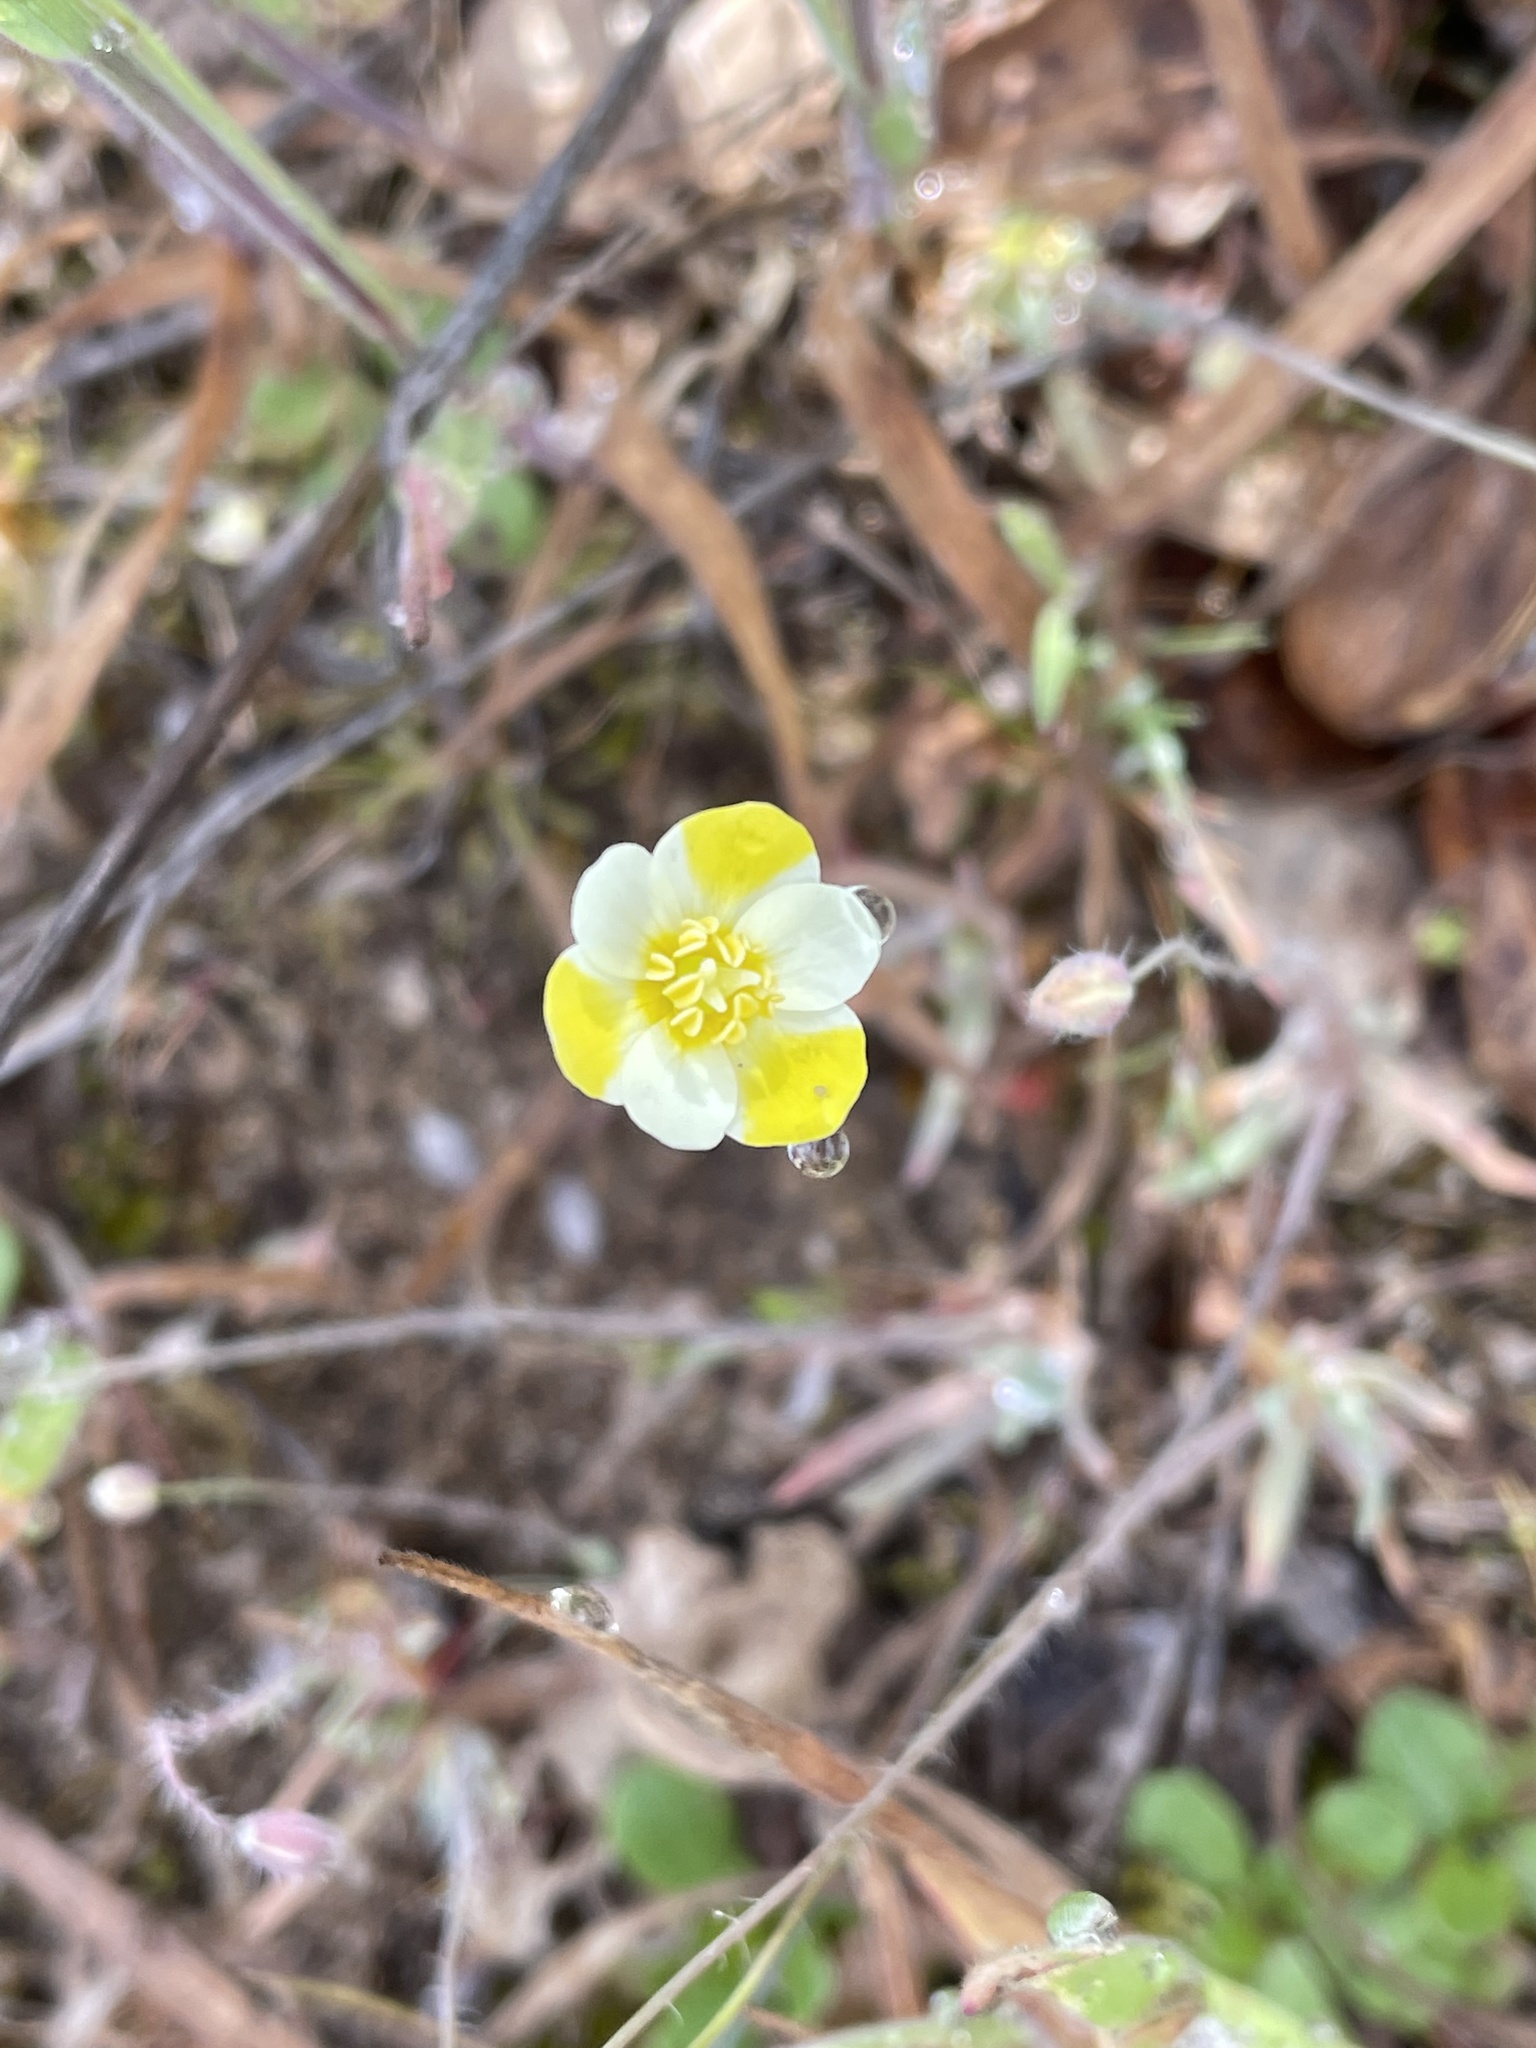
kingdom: Plantae
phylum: Tracheophyta
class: Magnoliopsida
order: Ranunculales
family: Papaveraceae
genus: Platystigma
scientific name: Platystigma lineare
